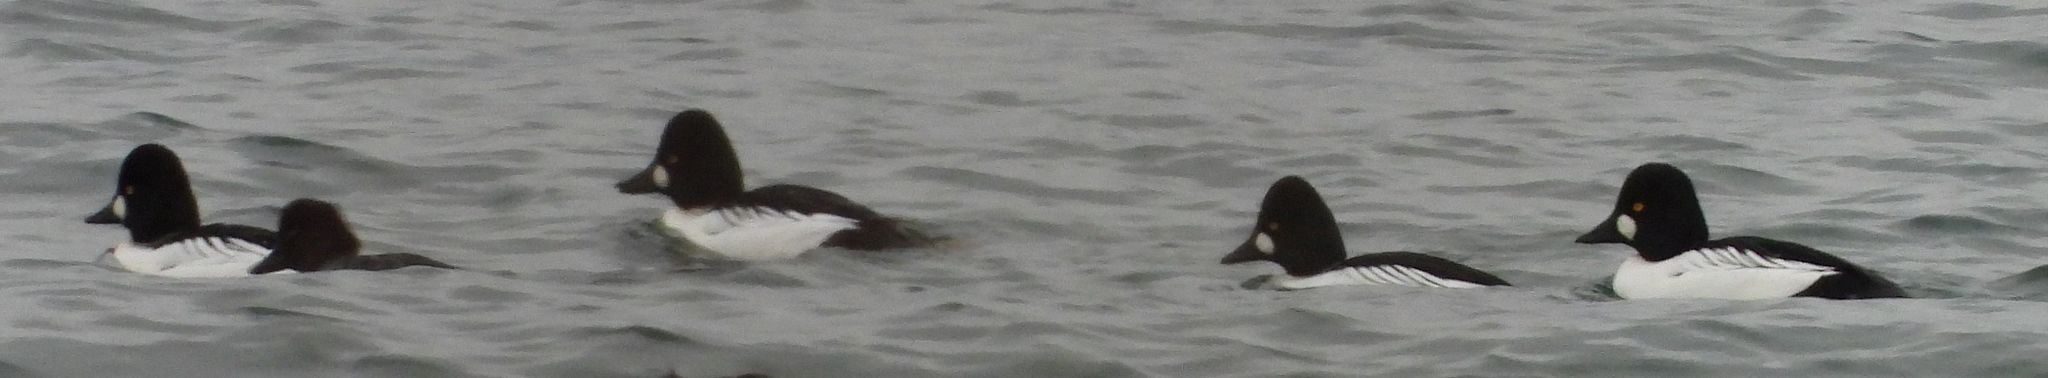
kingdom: Animalia
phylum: Chordata
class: Aves
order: Anseriformes
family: Anatidae
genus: Bucephala
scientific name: Bucephala clangula
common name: Common goldeneye
